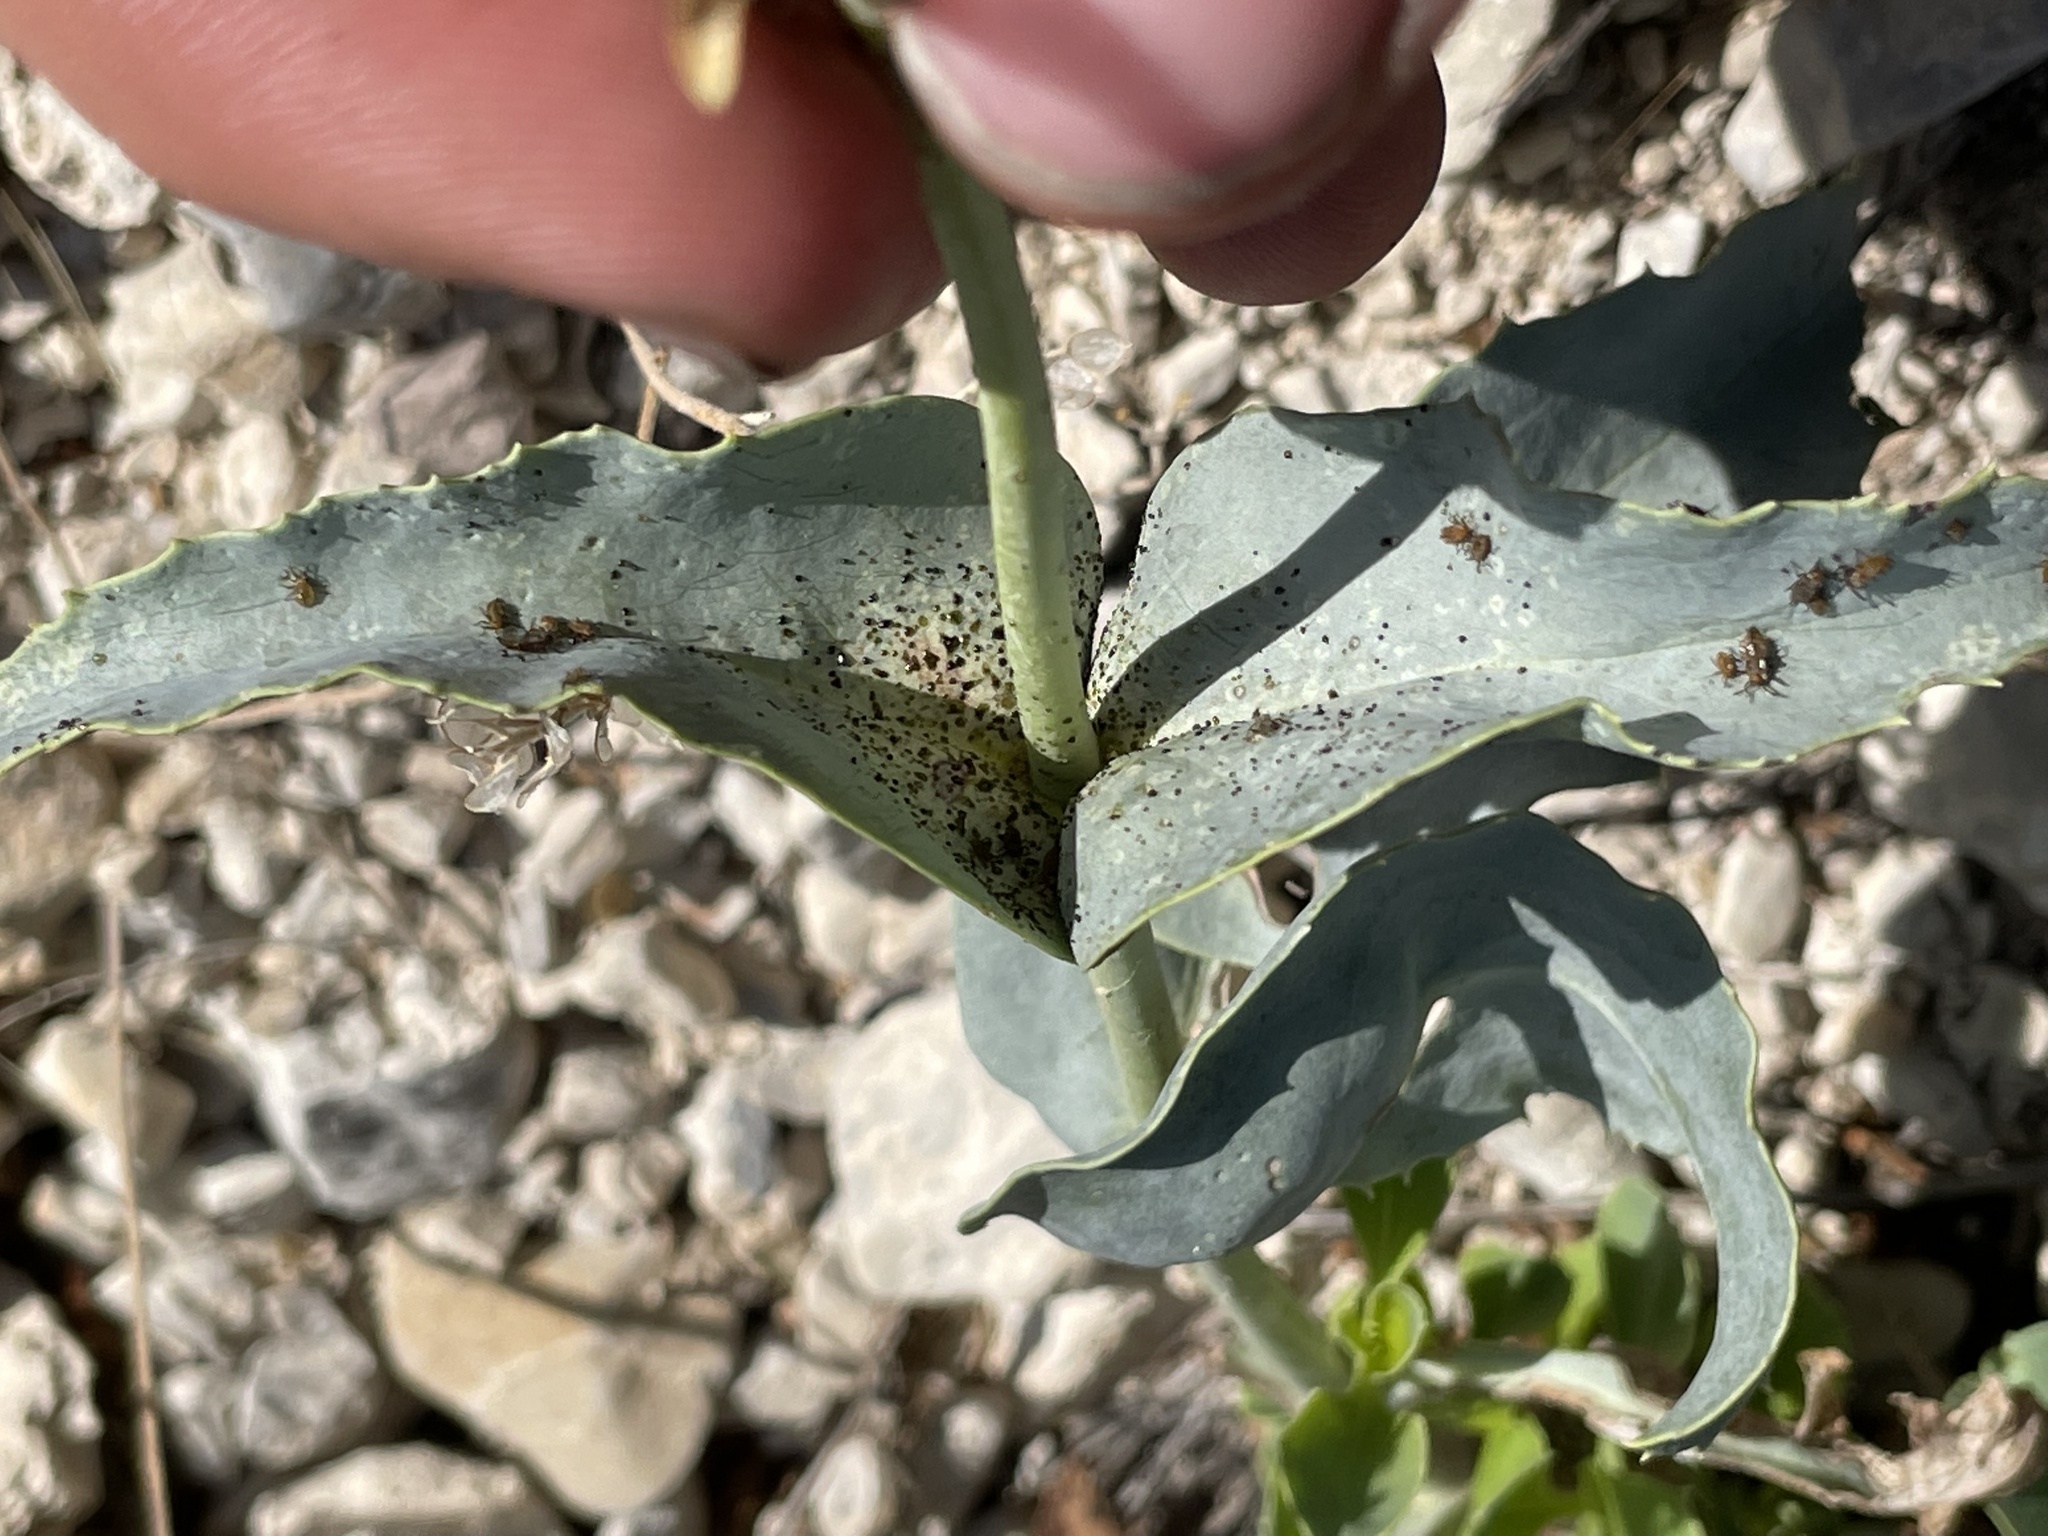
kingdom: Plantae
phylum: Tracheophyta
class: Magnoliopsida
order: Lamiales
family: Plantaginaceae
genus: Penstemon
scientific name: Penstemon palmeri
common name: Palmer penstemon
